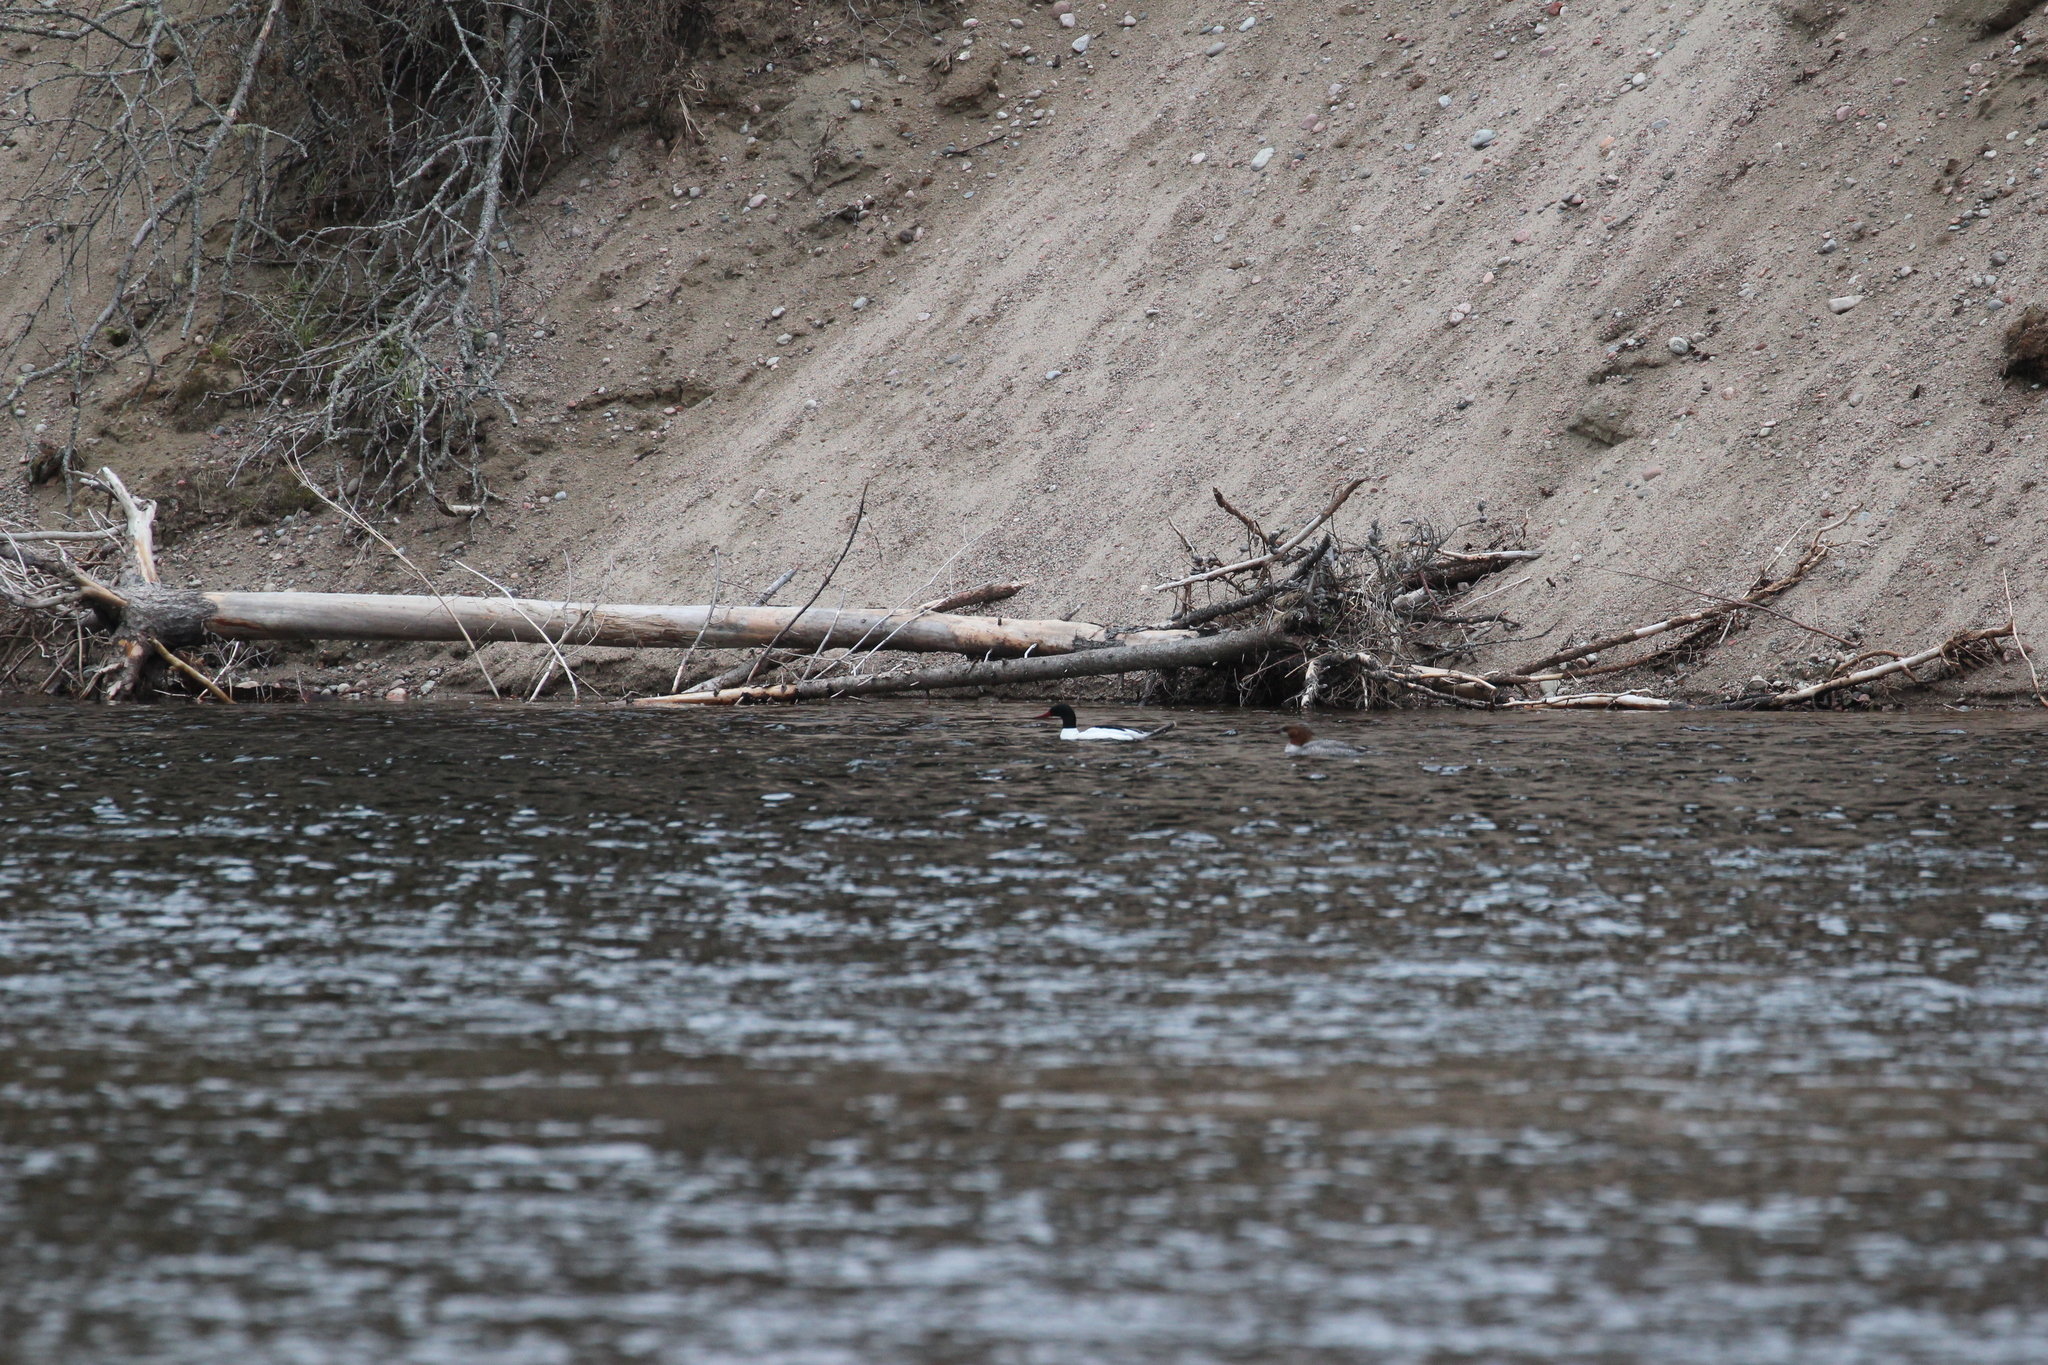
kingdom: Animalia
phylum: Chordata
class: Aves
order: Anseriformes
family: Anatidae
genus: Mergus
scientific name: Mergus merganser
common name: Common merganser
